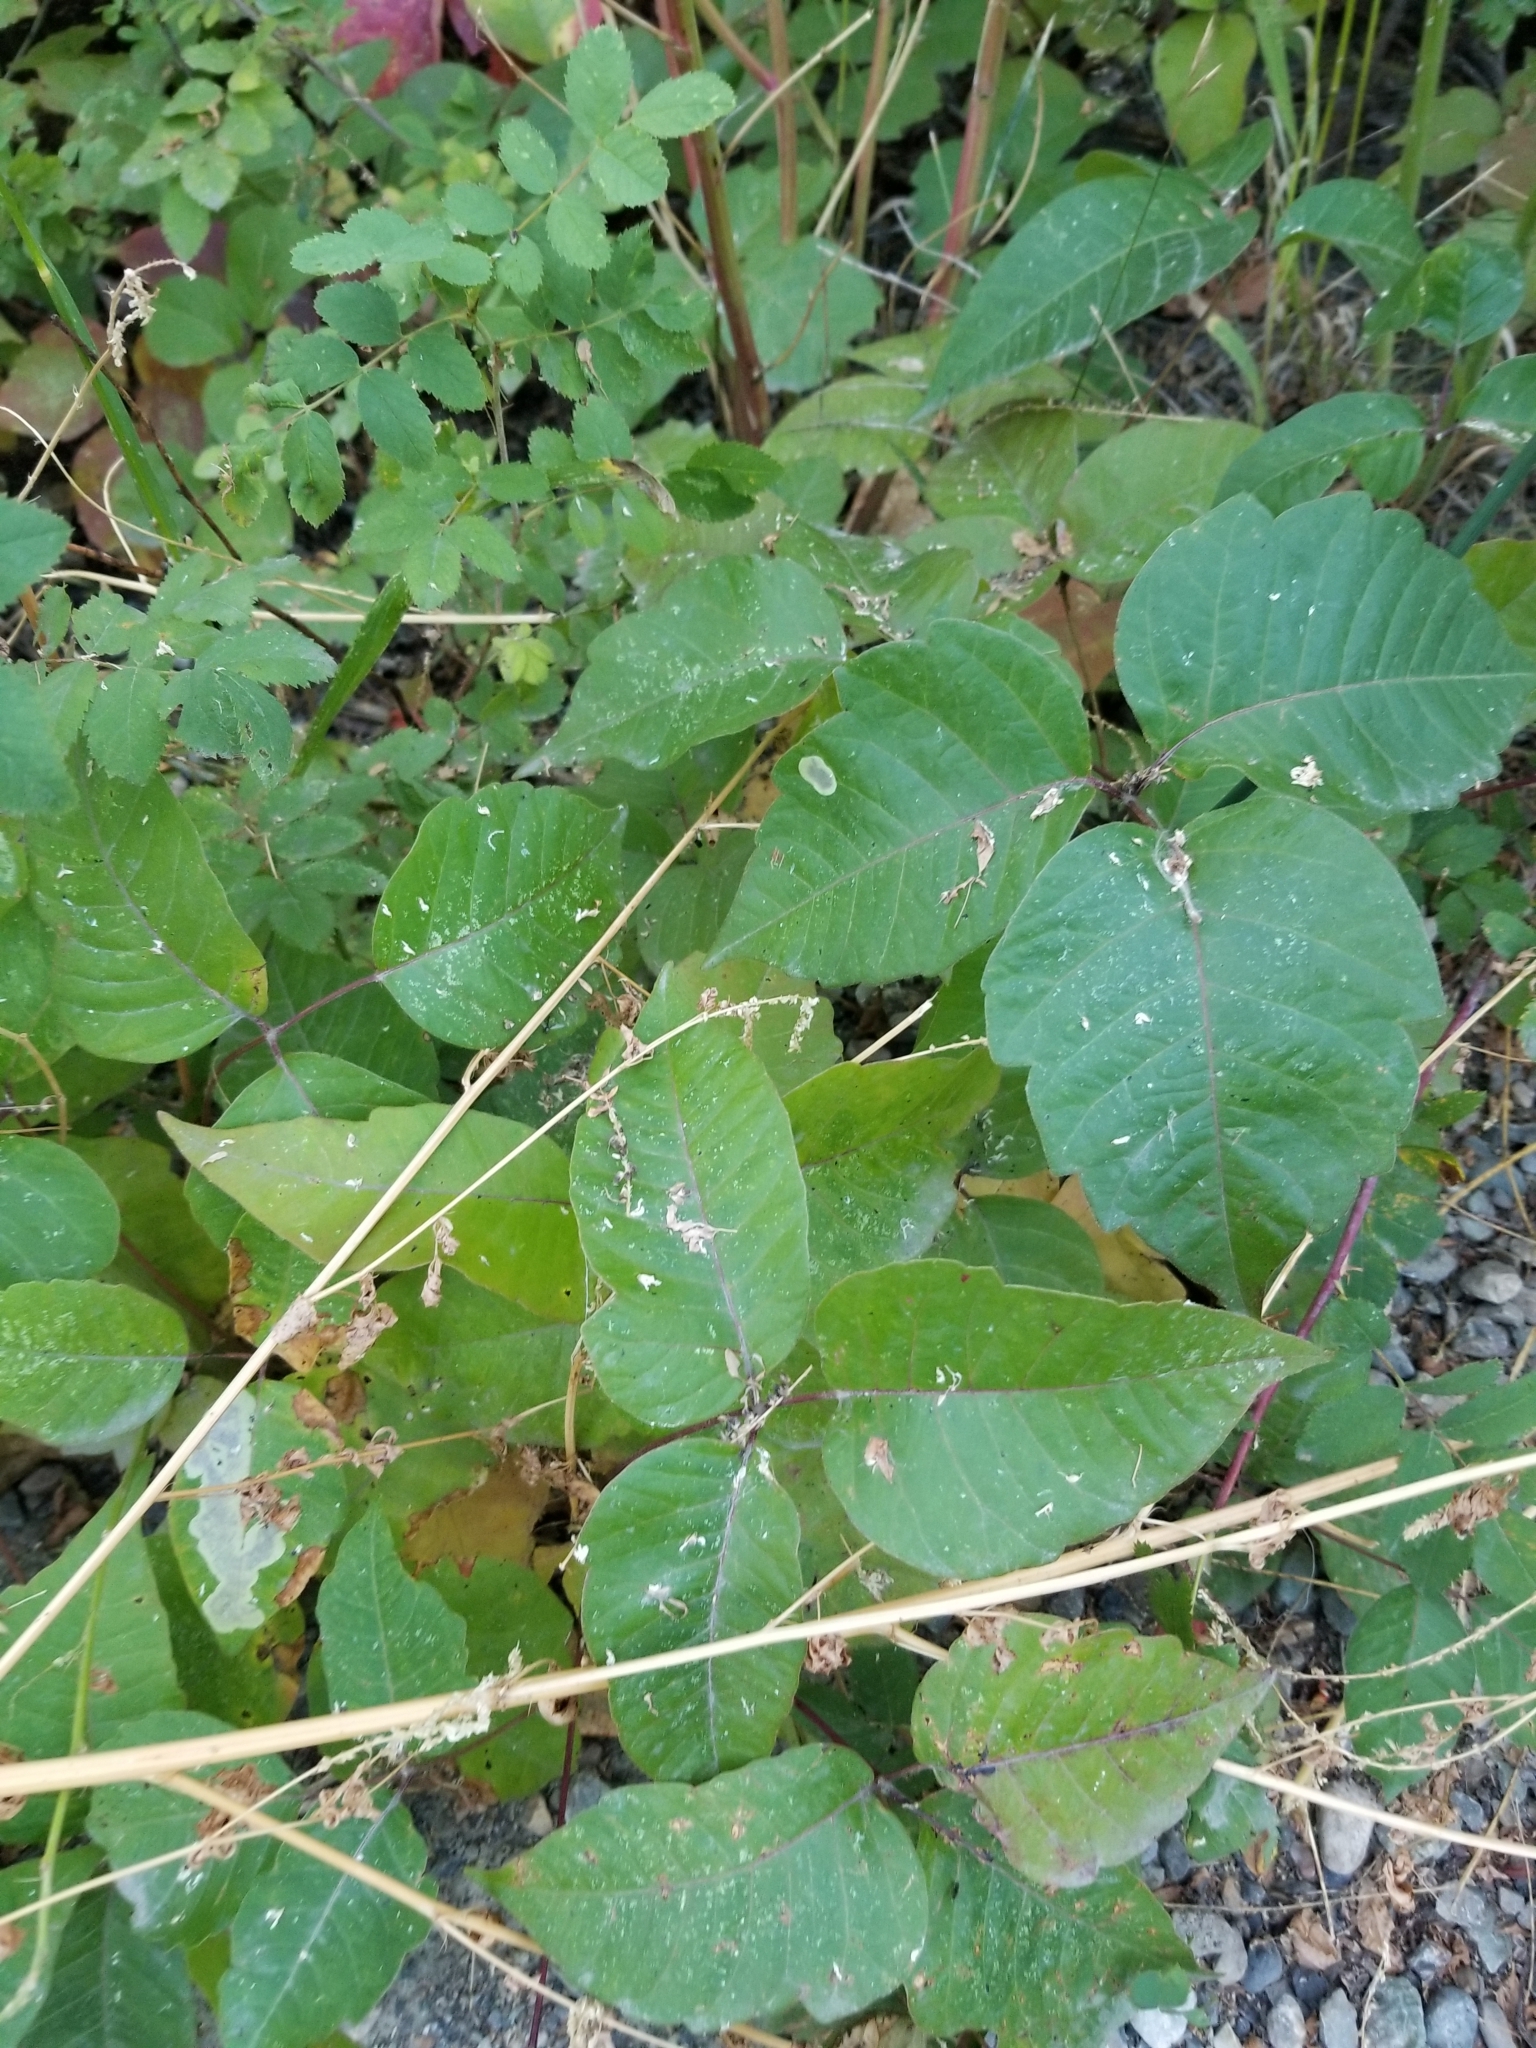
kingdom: Plantae
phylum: Tracheophyta
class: Magnoliopsida
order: Sapindales
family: Anacardiaceae
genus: Toxicodendron
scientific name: Toxicodendron rydbergii
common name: Rydberg's poison-ivy
